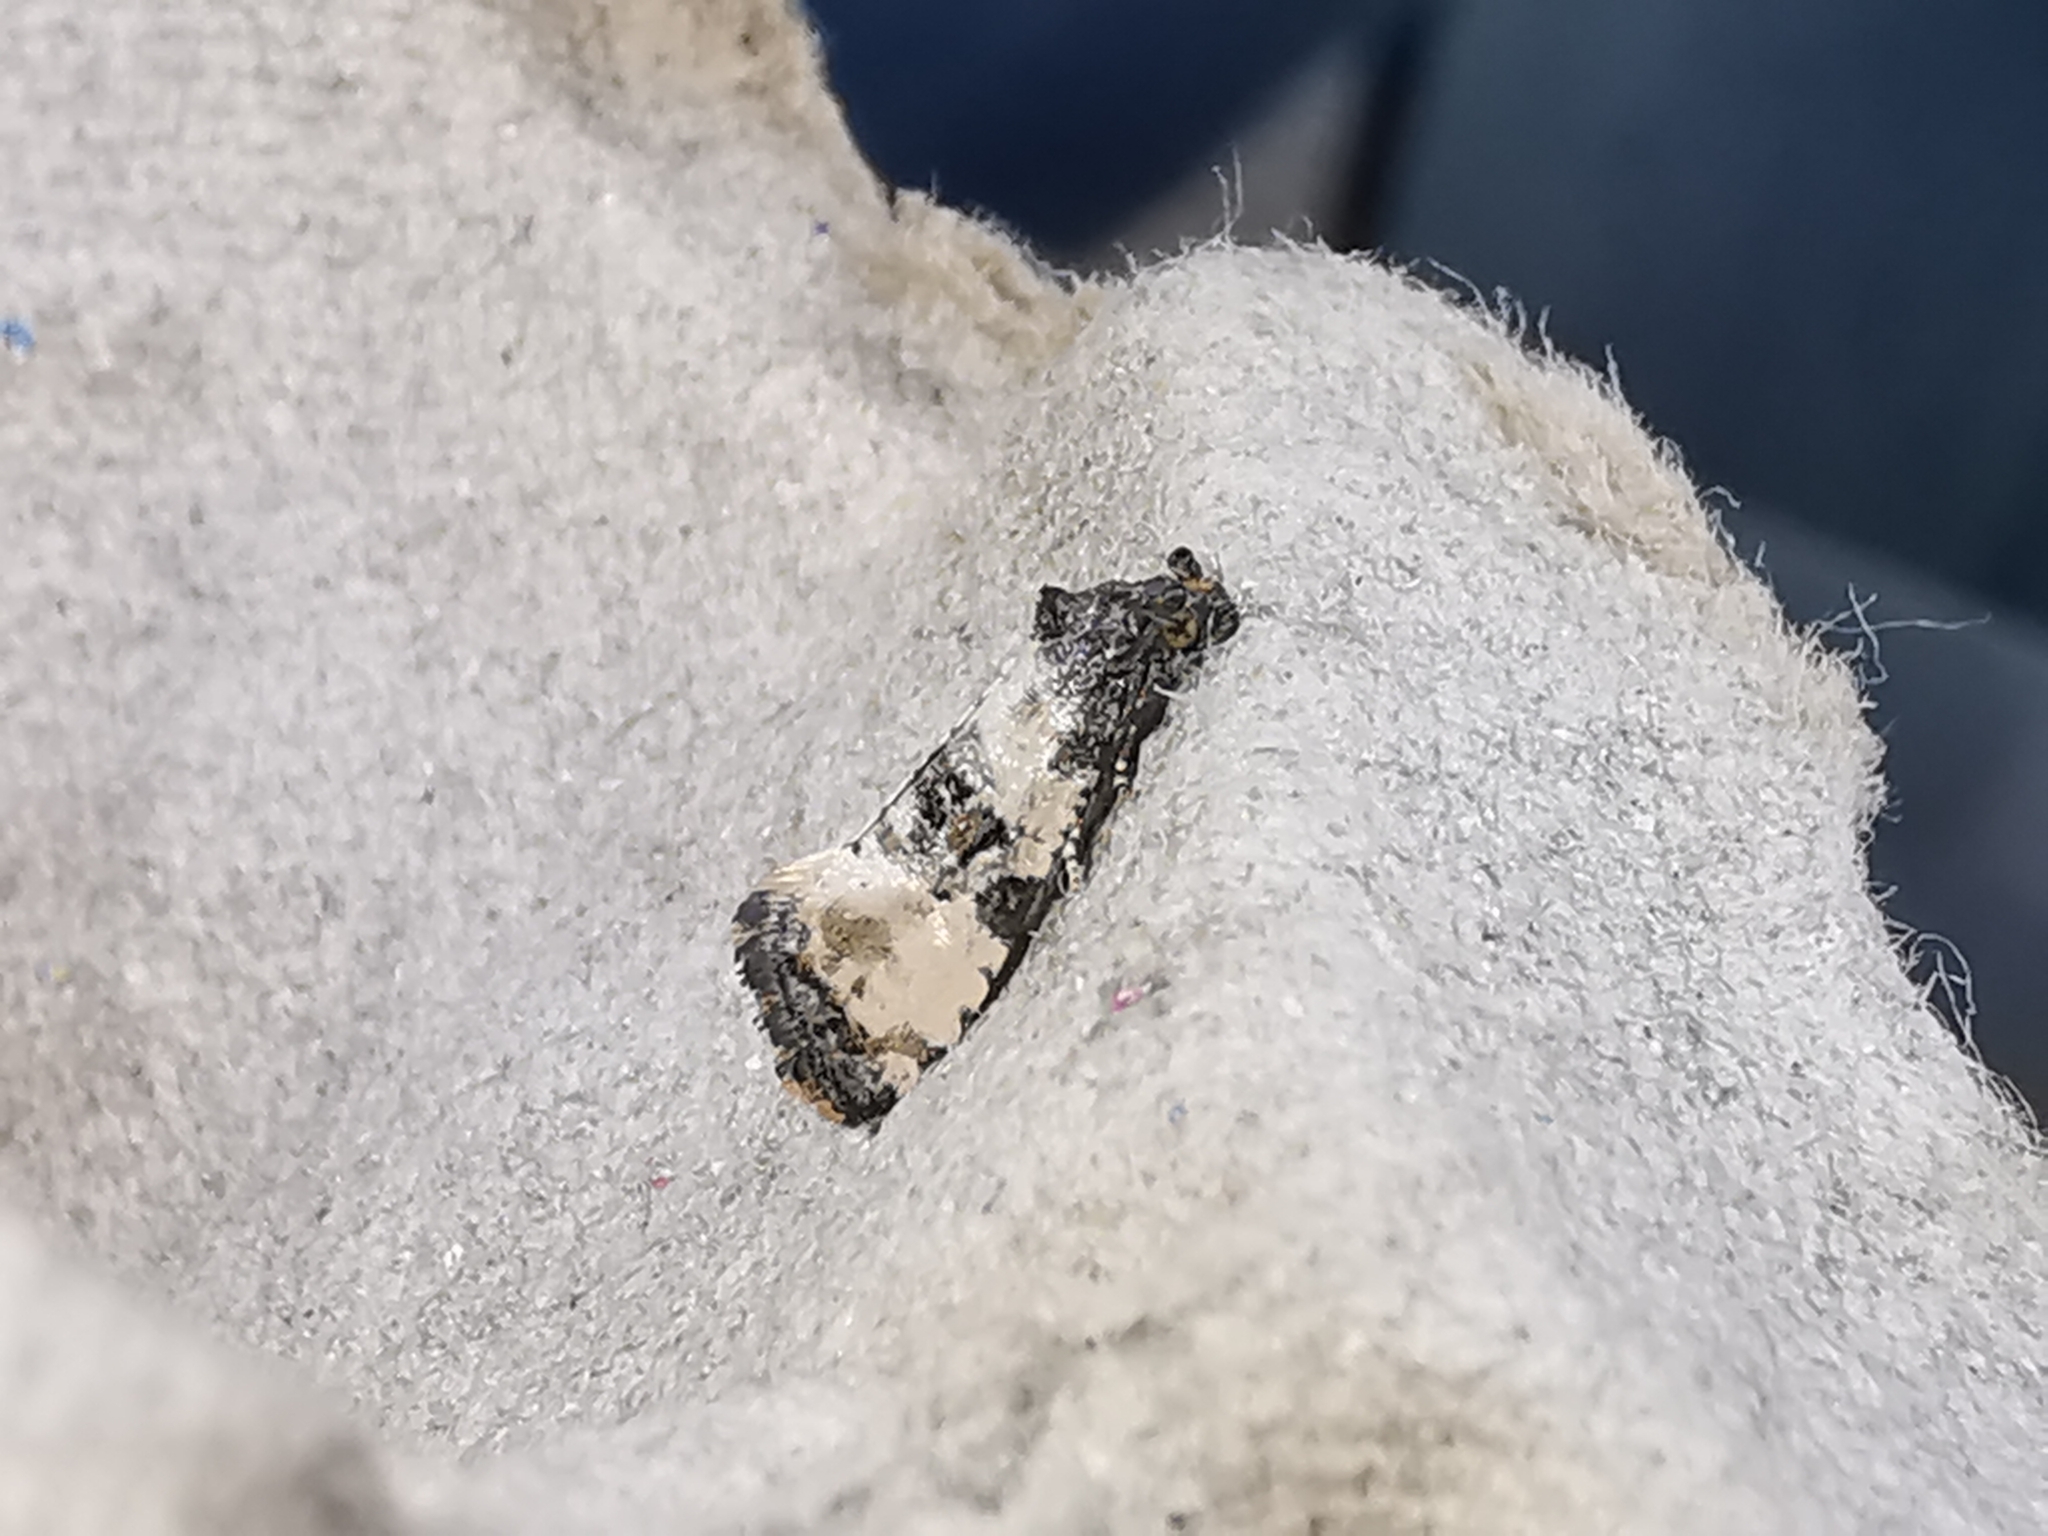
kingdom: Animalia
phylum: Arthropoda
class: Insecta
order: Lepidoptera
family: Tortricidae
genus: Cochylis
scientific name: Cochylis atricapitana
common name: Tortricid moth
